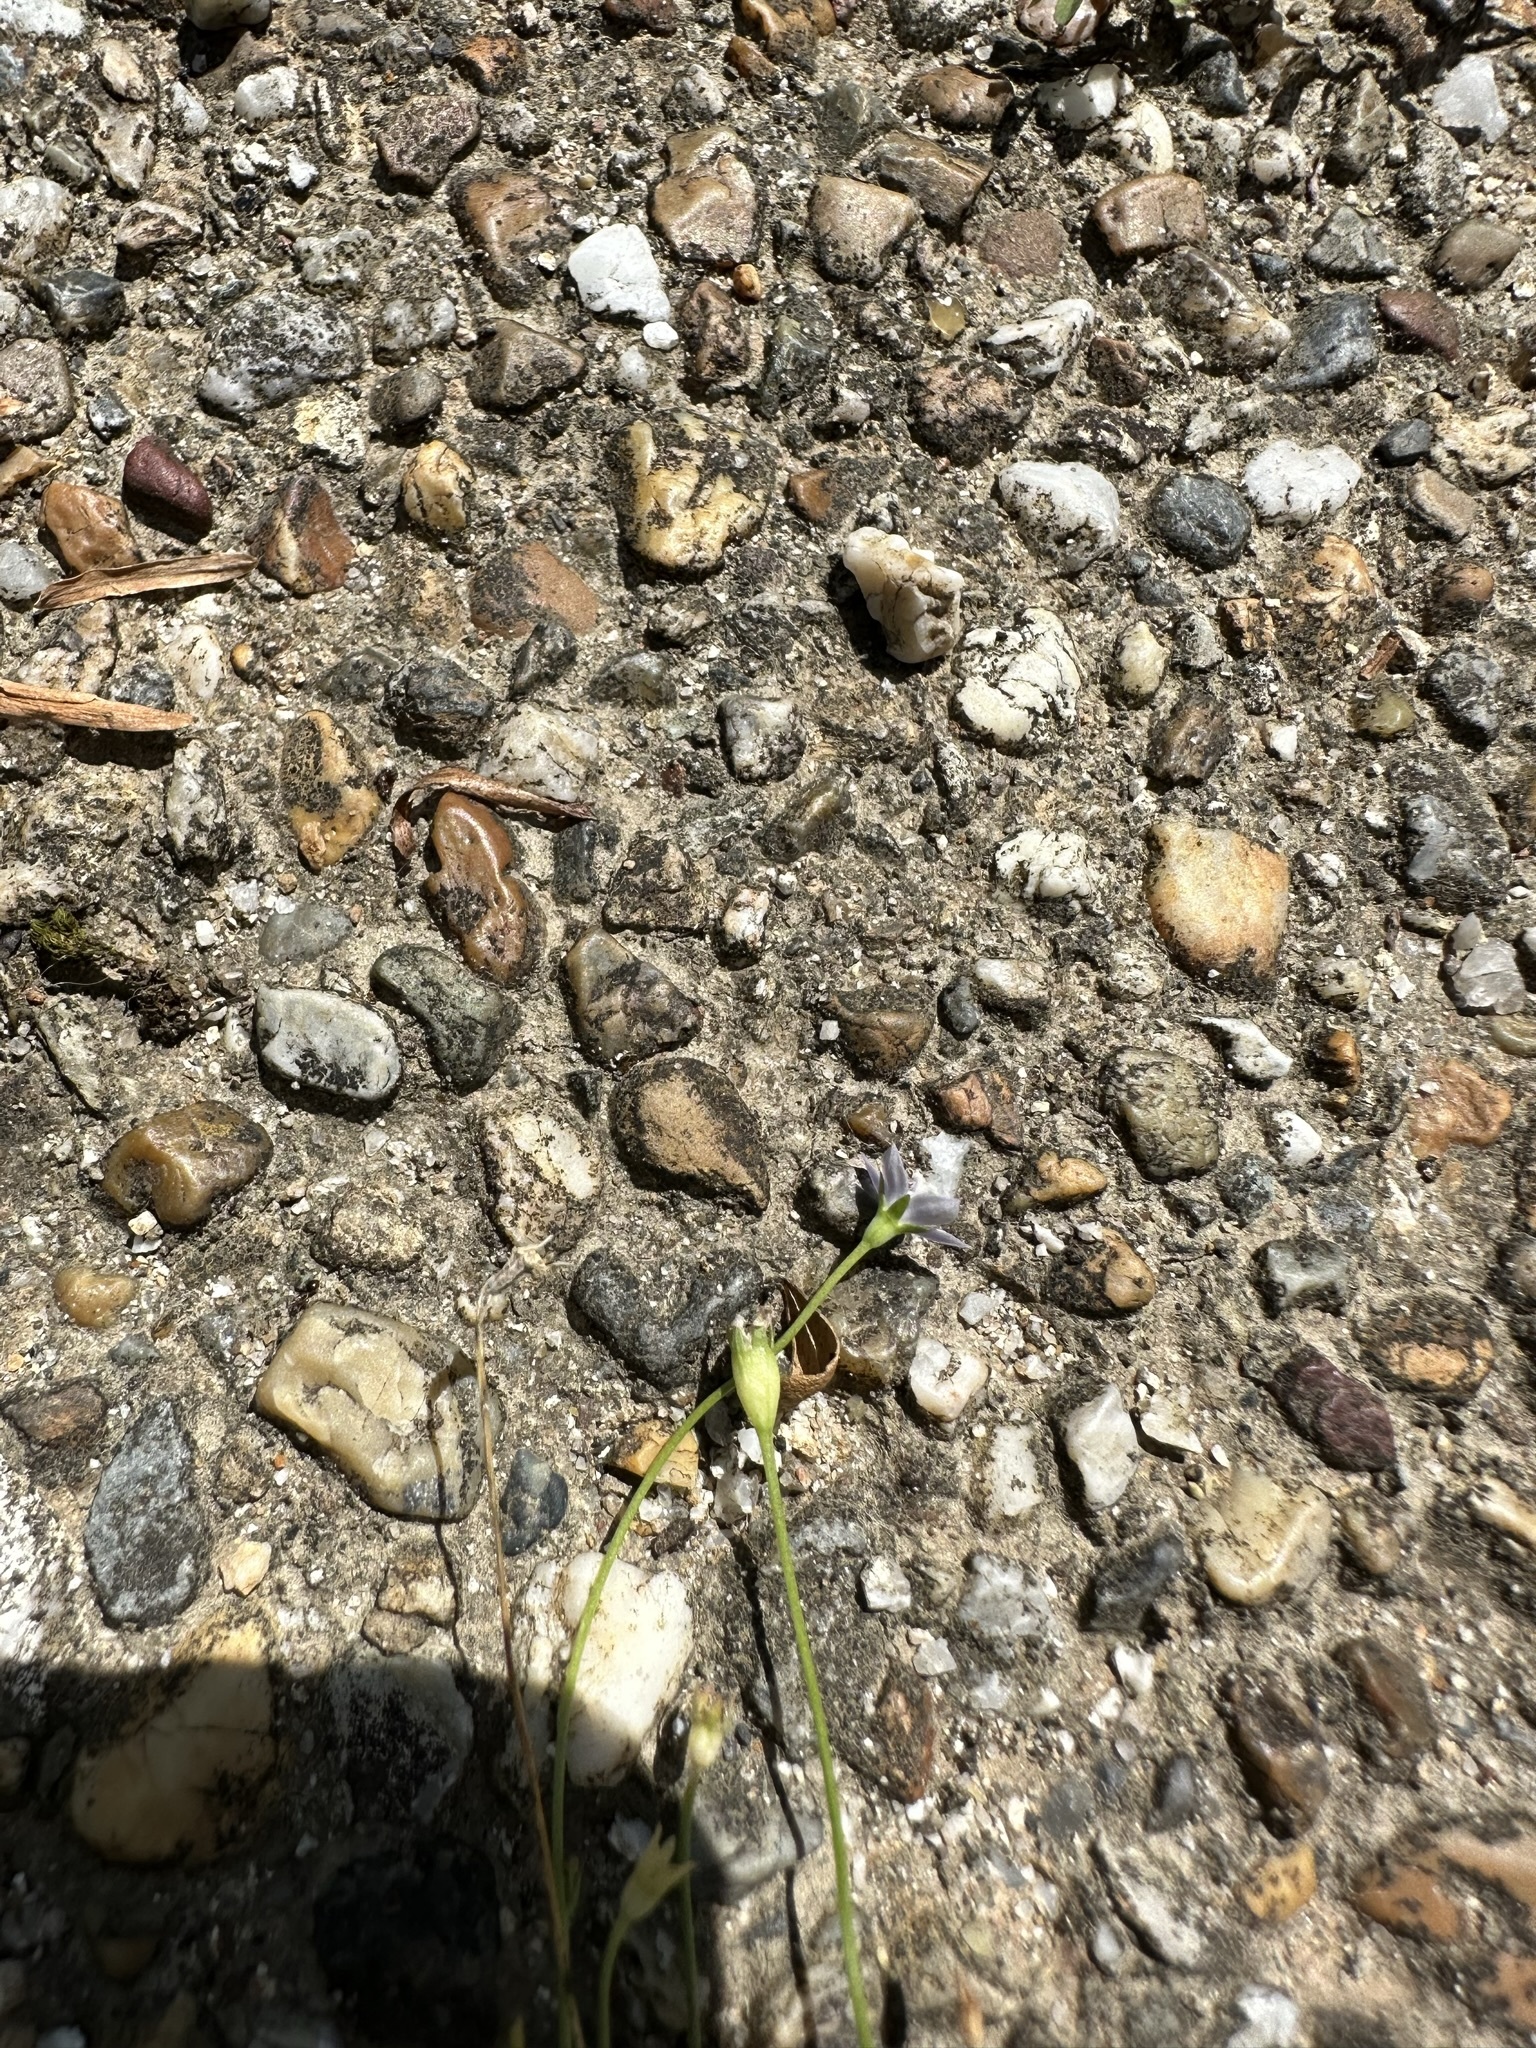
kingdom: Plantae
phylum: Tracheophyta
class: Magnoliopsida
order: Asterales
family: Campanulaceae
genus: Wahlenbergia
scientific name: Wahlenbergia marginata
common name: Southern rockbell
